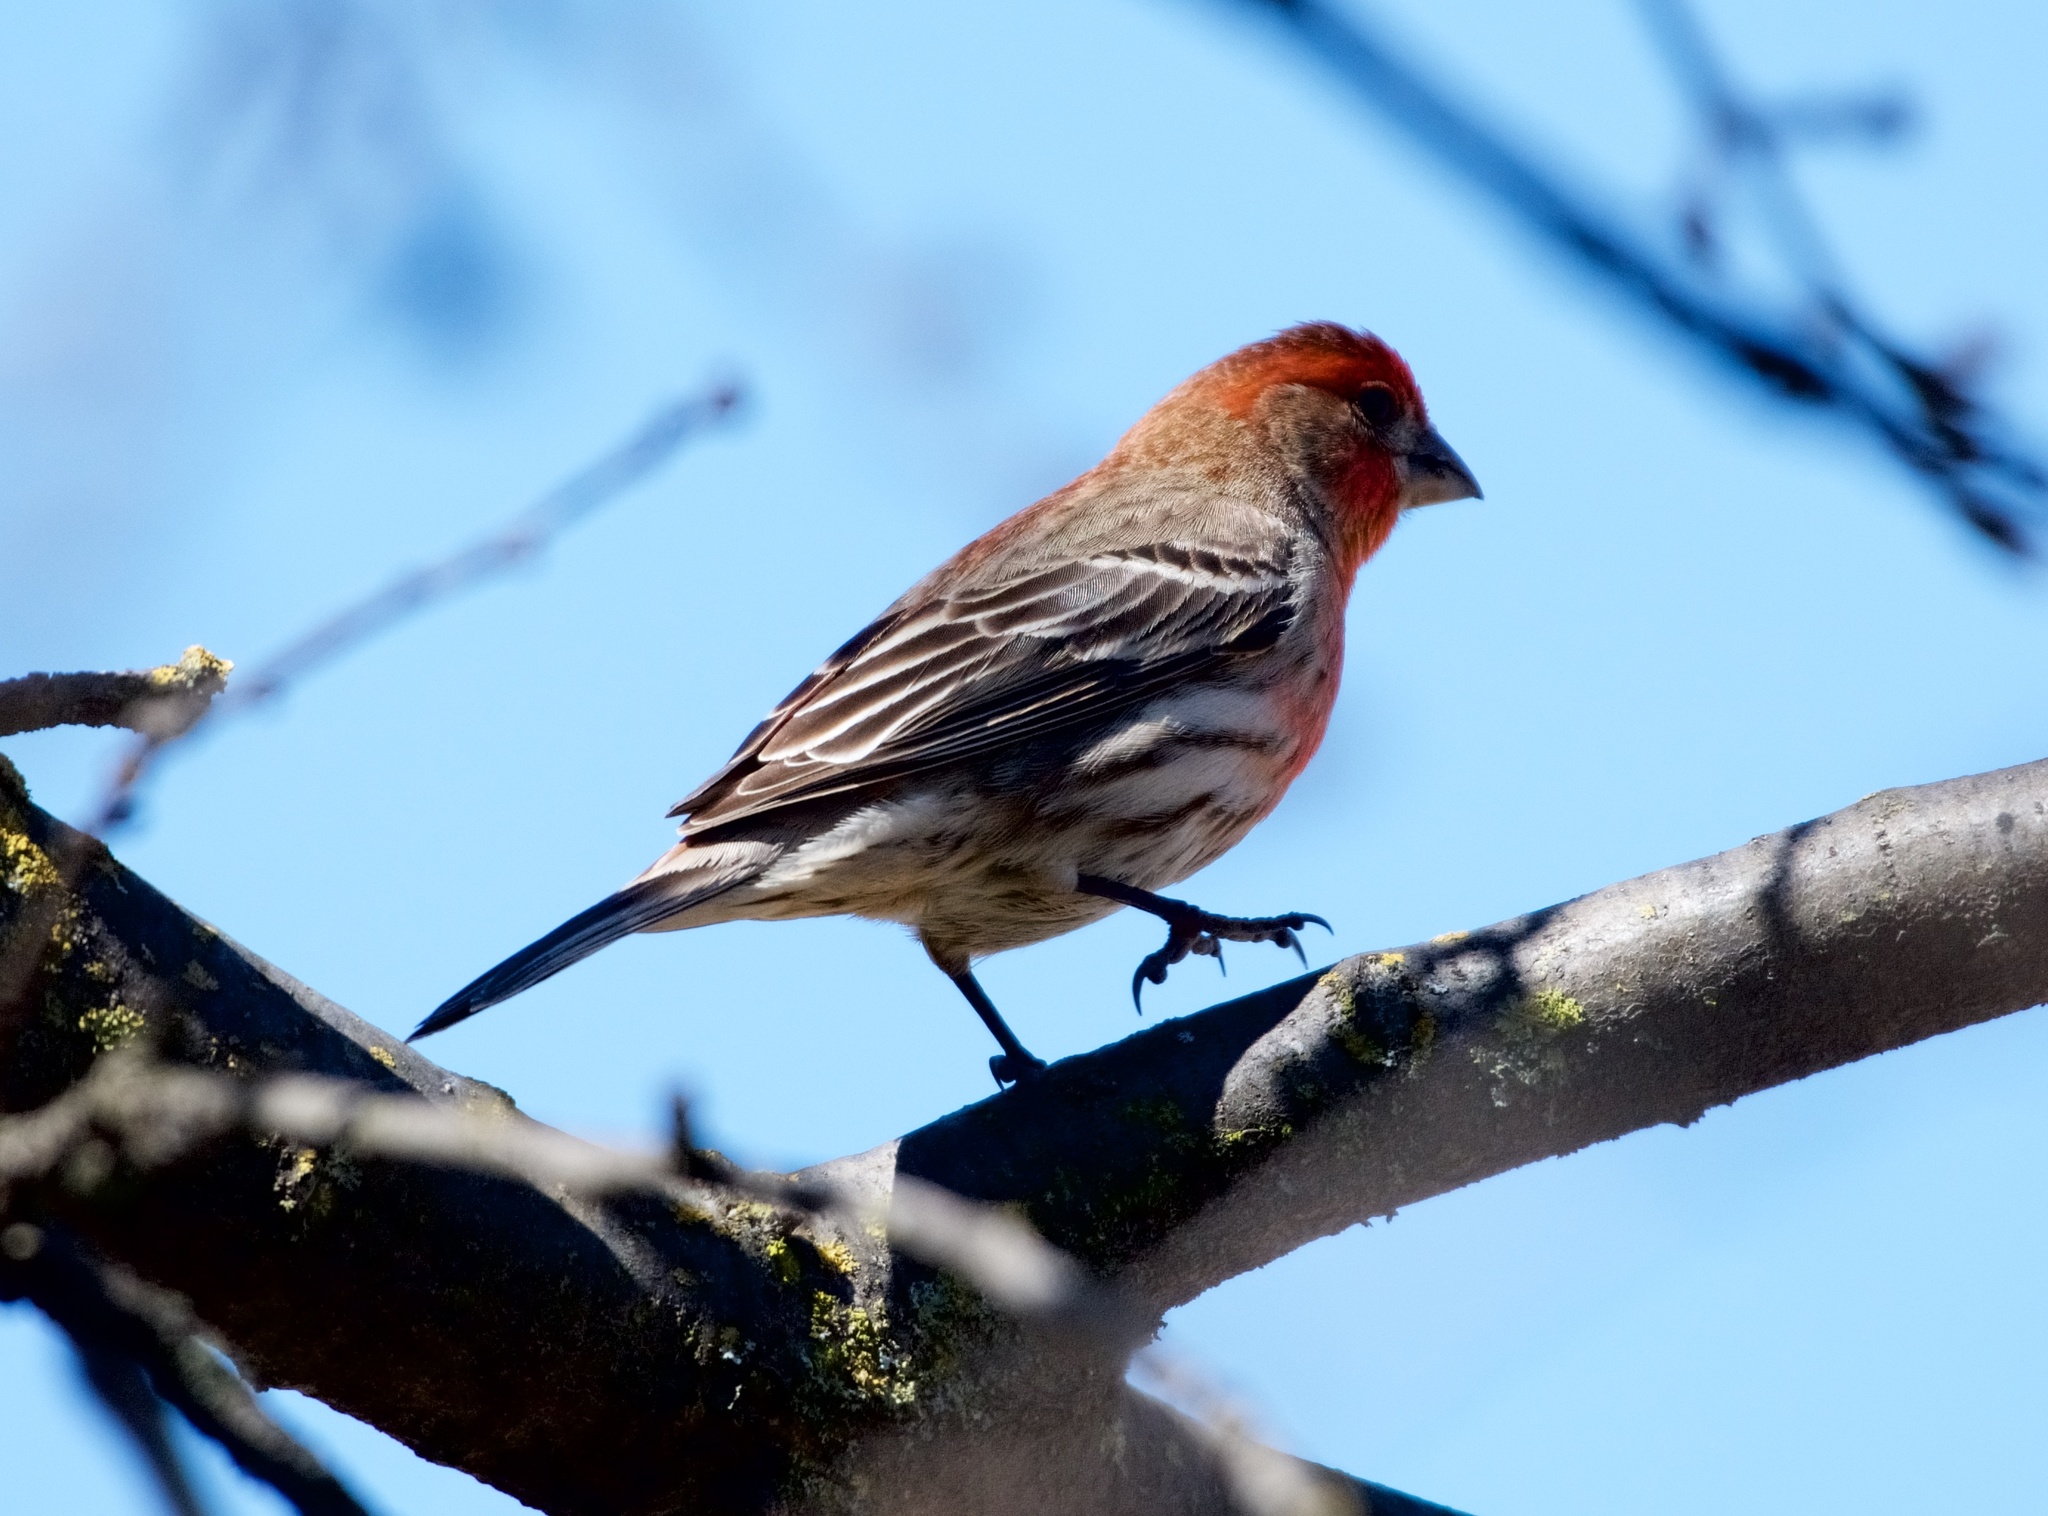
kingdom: Animalia
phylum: Chordata
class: Aves
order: Passeriformes
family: Fringillidae
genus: Haemorhous
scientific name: Haemorhous mexicanus
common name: House finch
